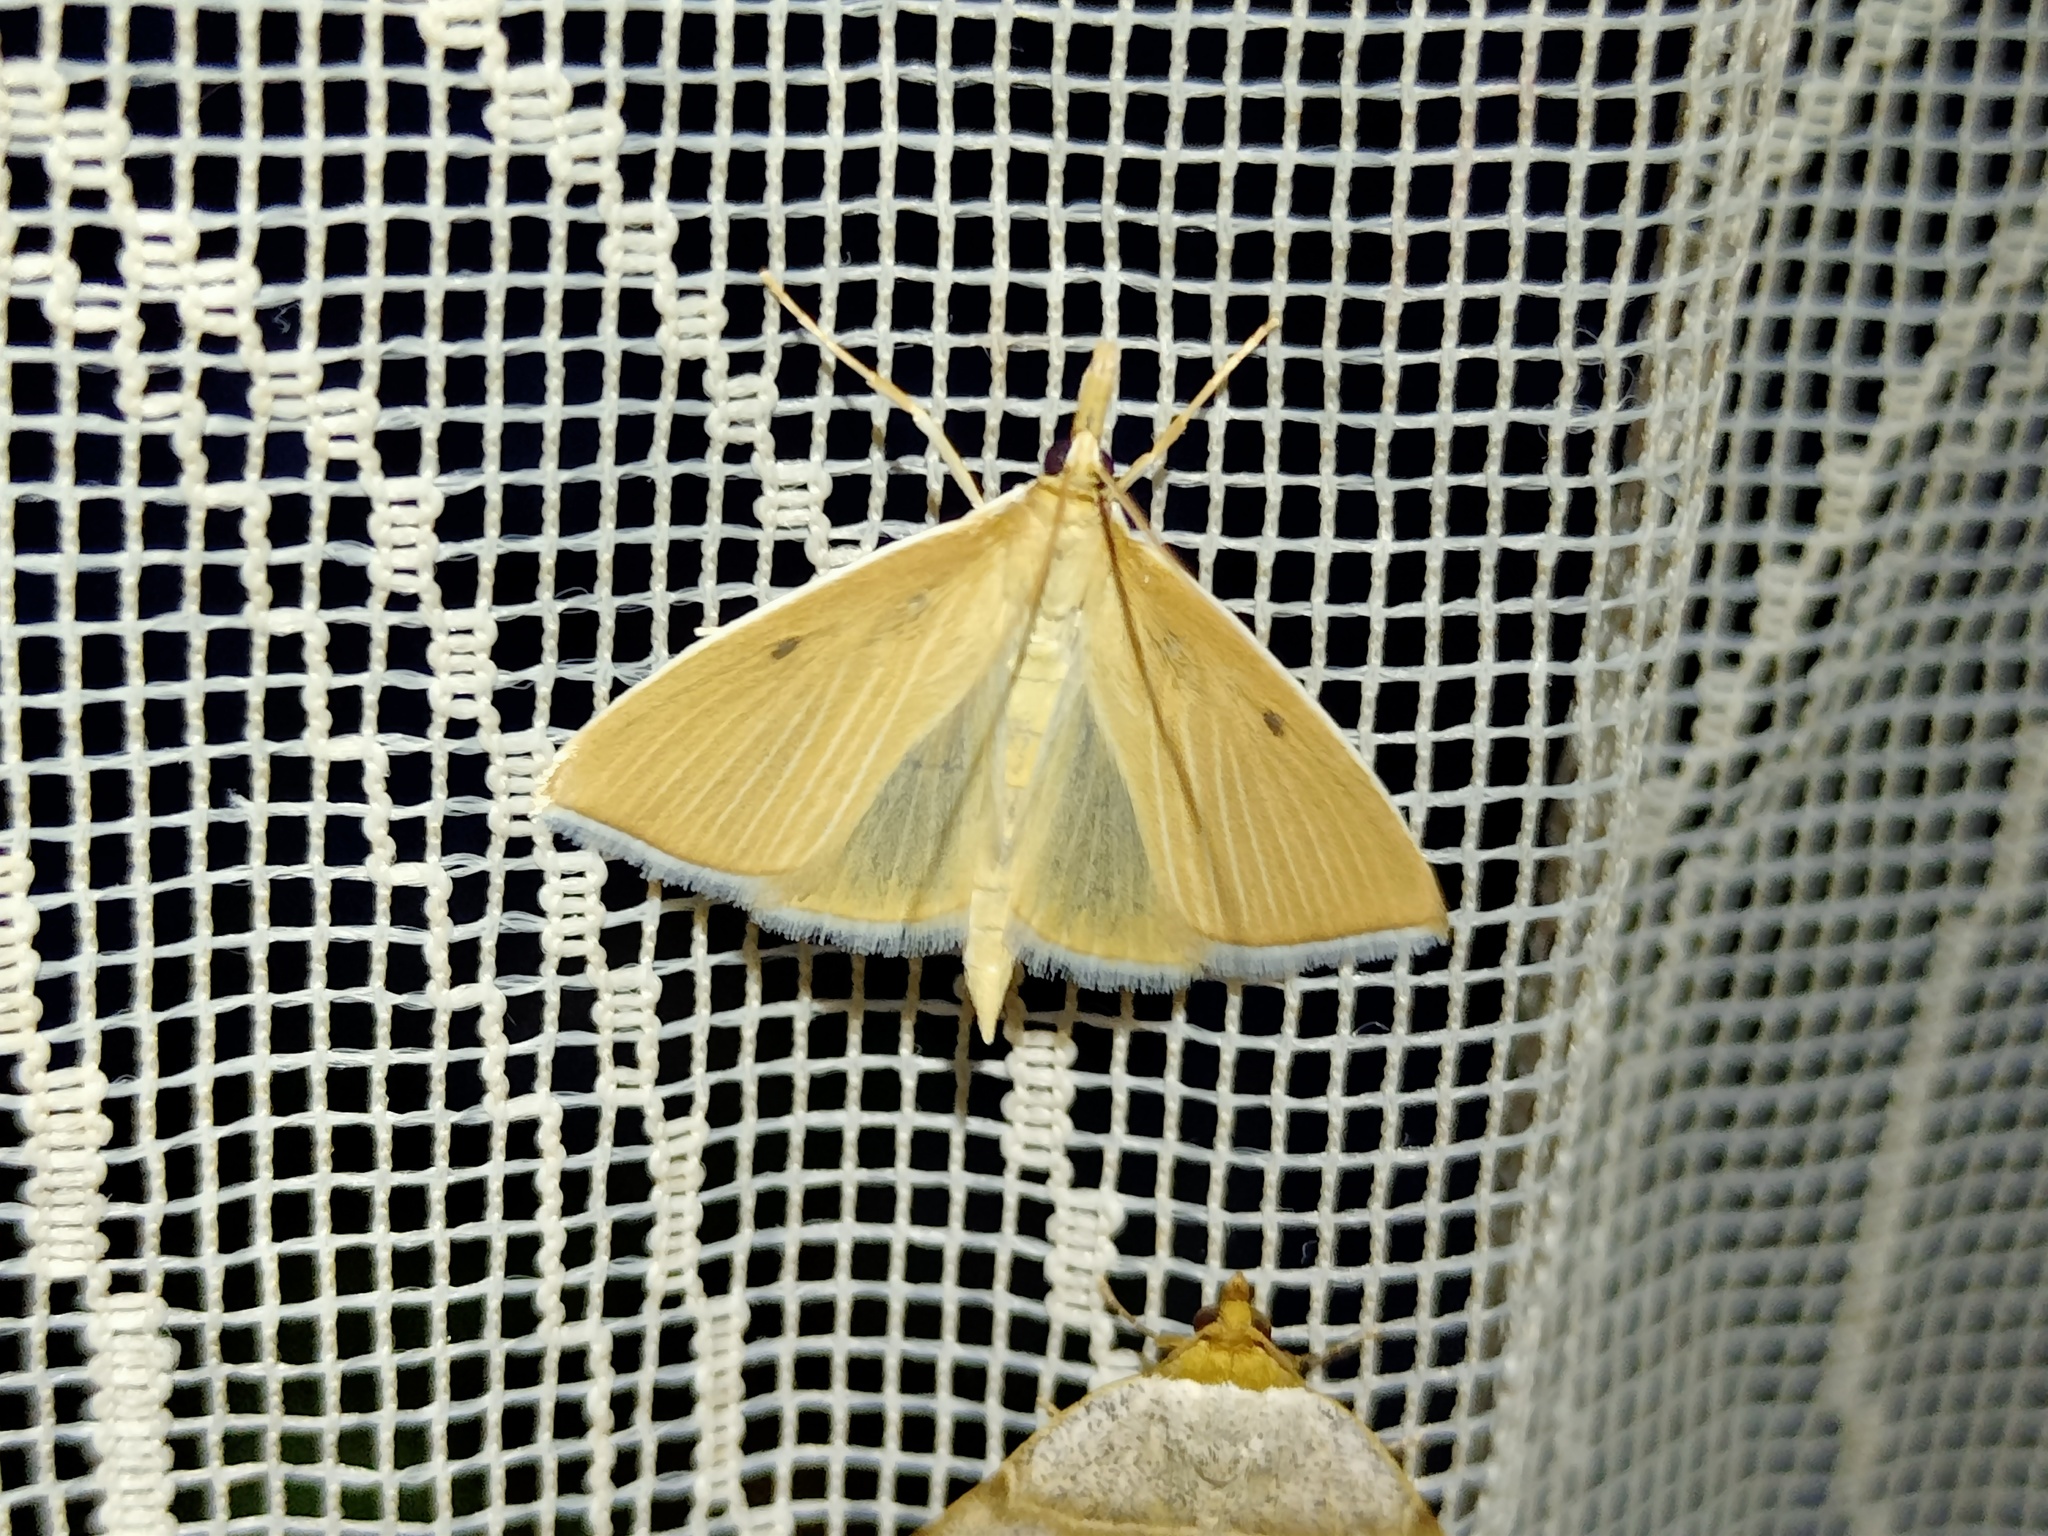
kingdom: Animalia
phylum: Arthropoda
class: Insecta
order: Lepidoptera
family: Crambidae
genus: Calamochrous
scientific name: Calamochrous Sclerocona acutella
